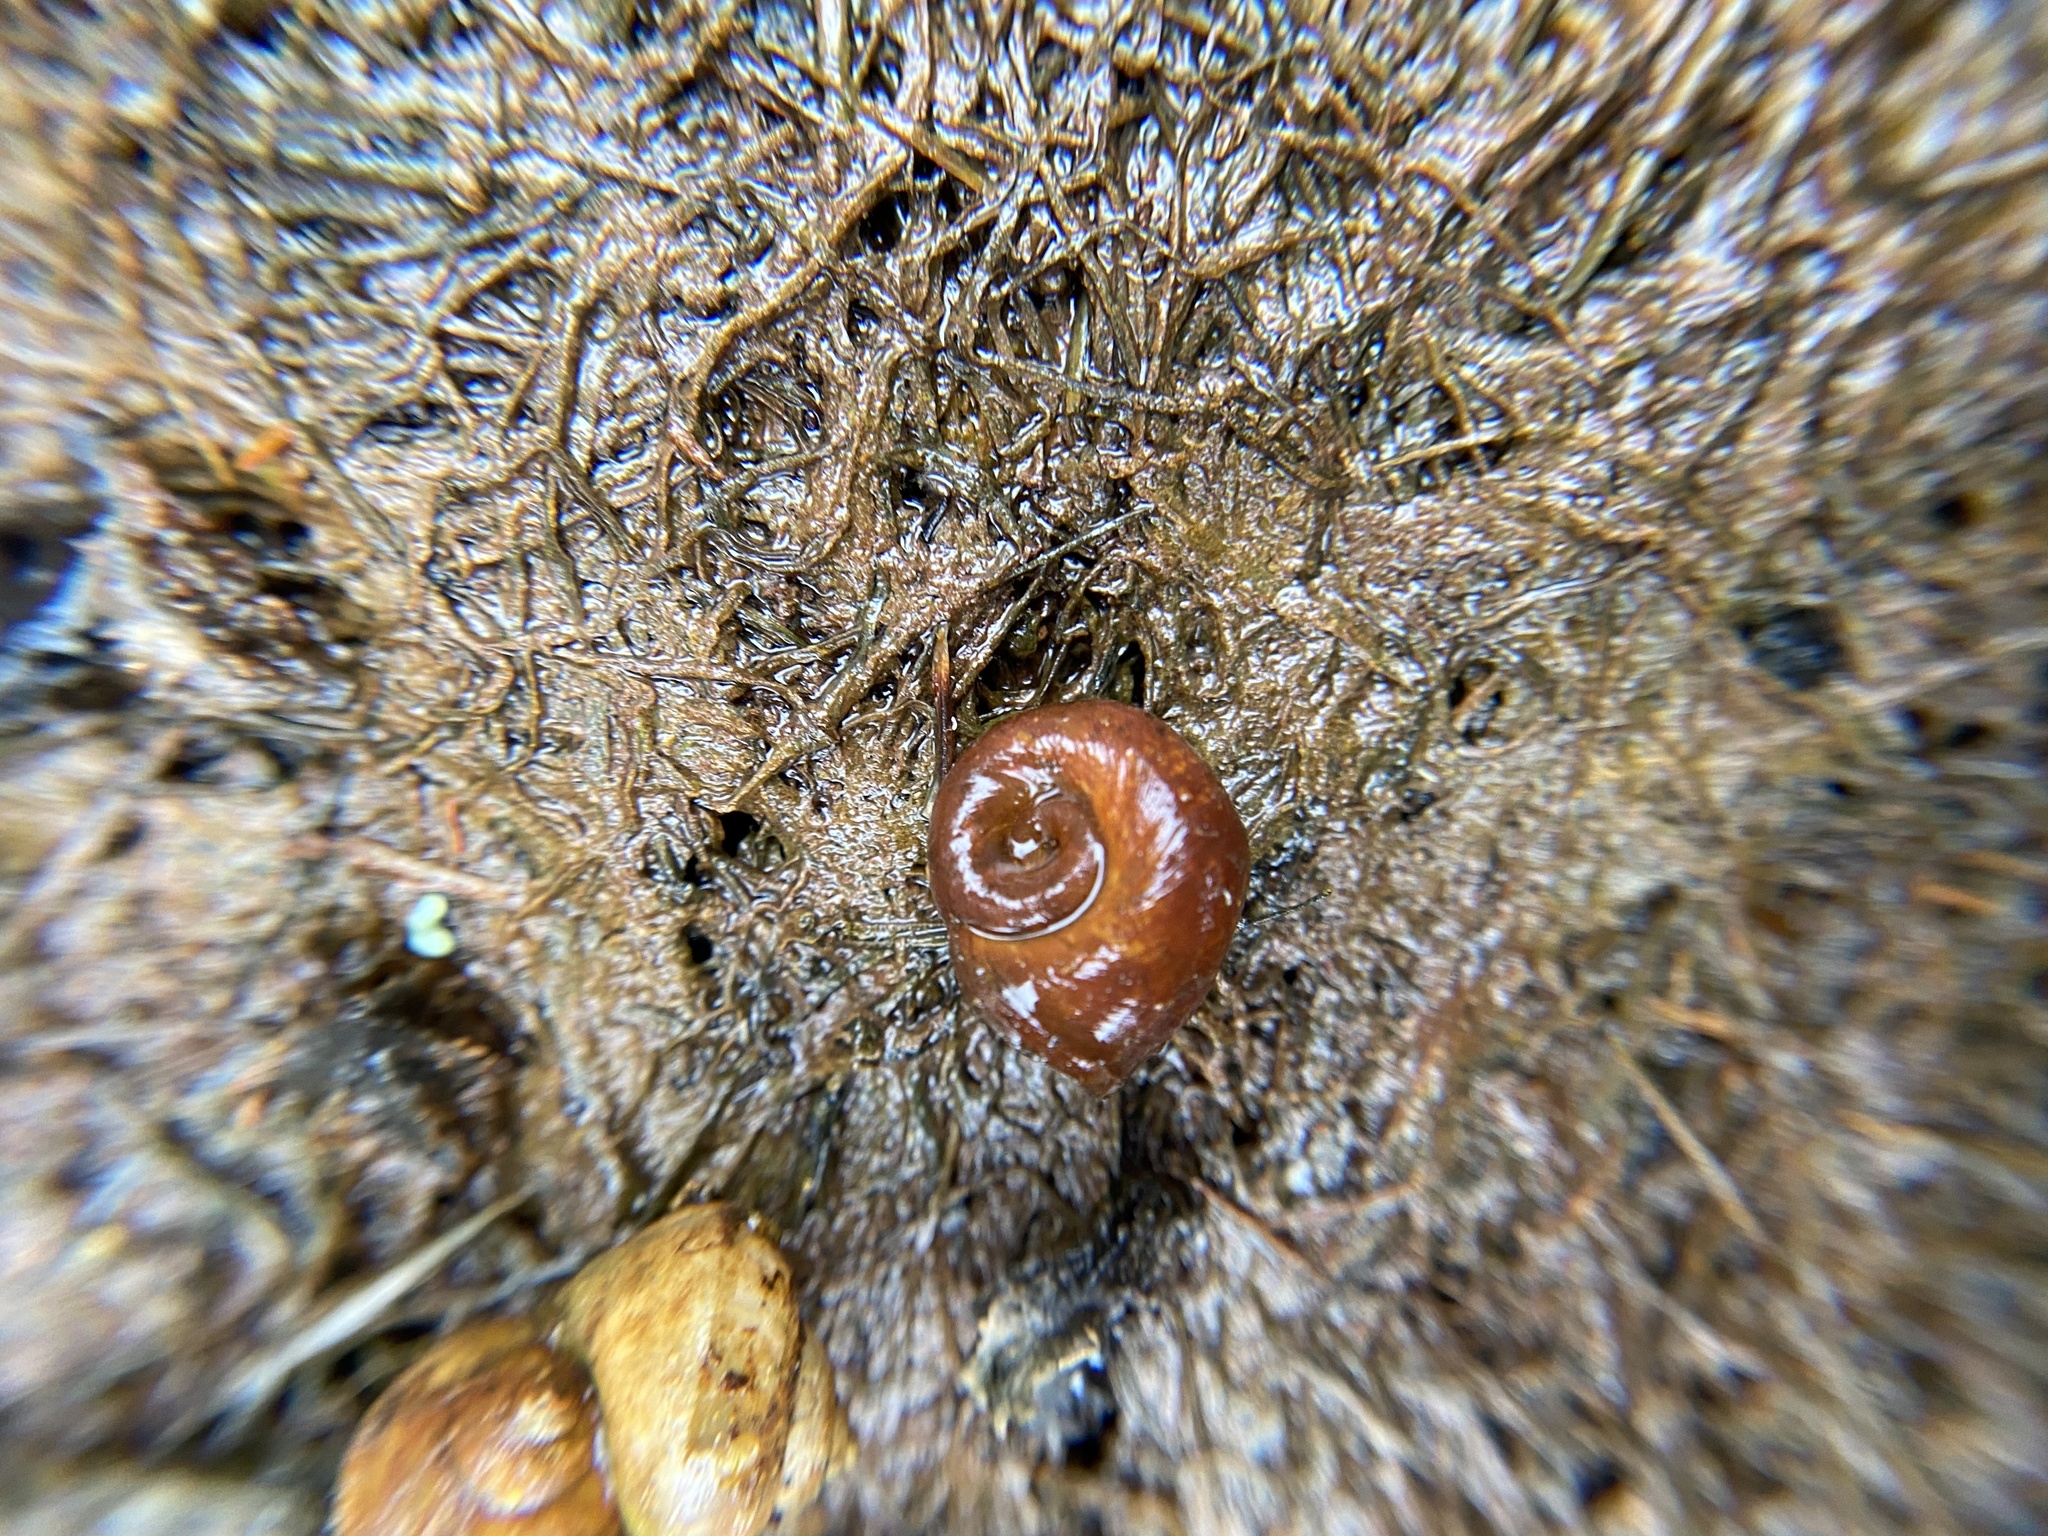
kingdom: Animalia
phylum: Mollusca
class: Gastropoda
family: Planorbidae
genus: Planorbella
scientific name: Planorbella trivolvis
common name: Marsh rams-horn
